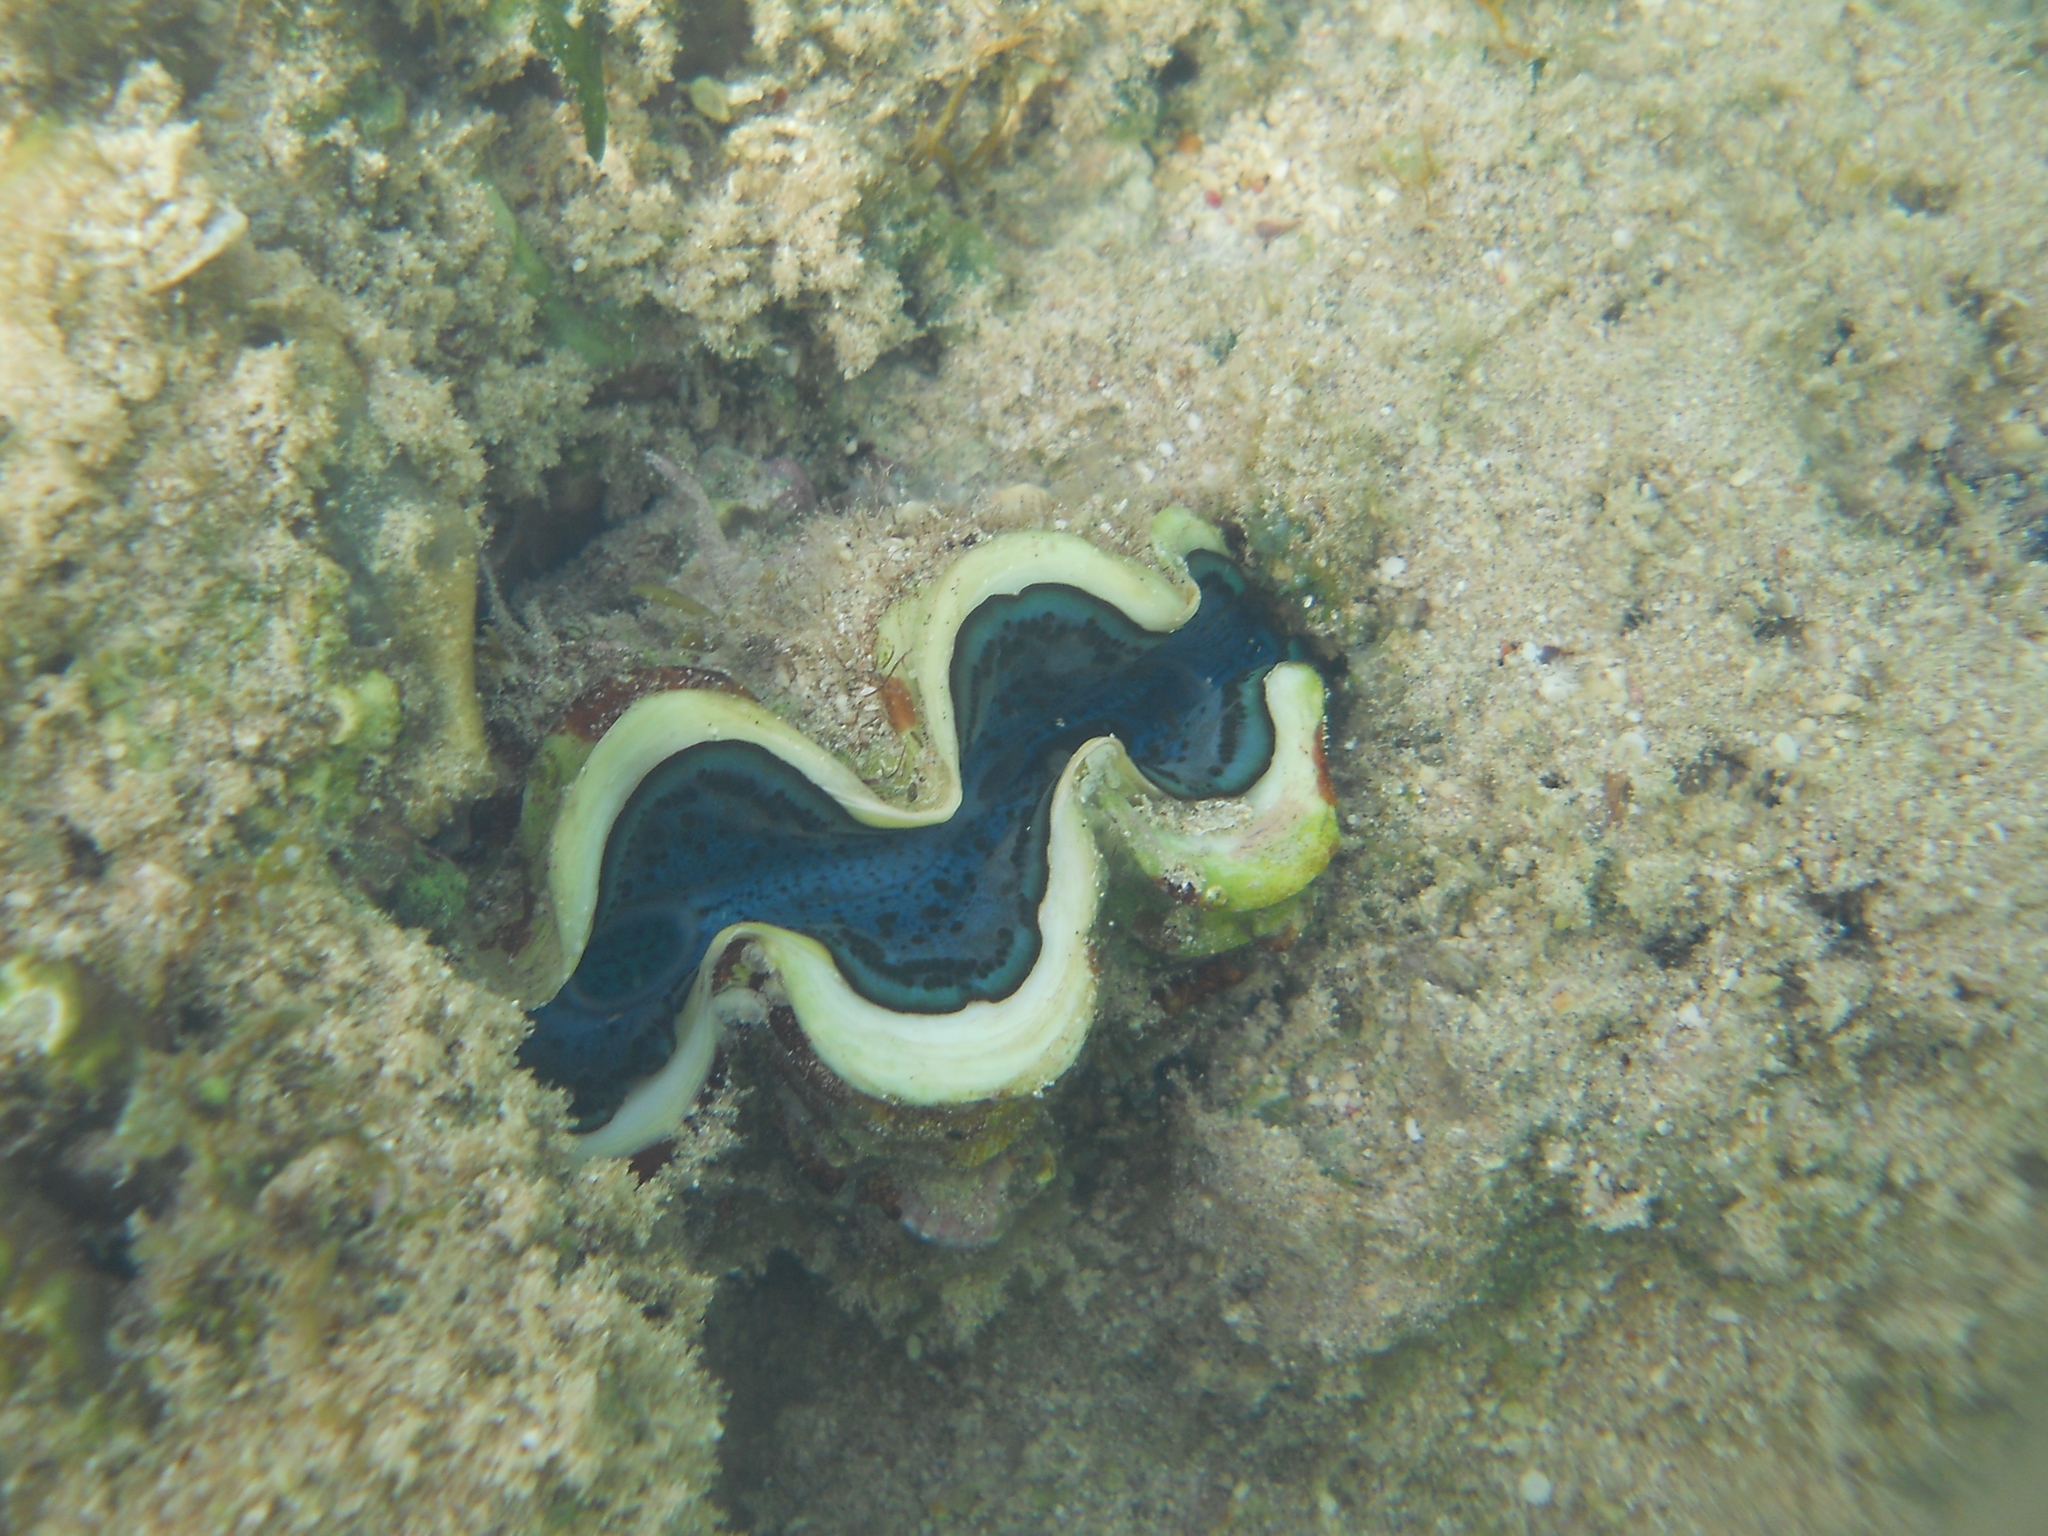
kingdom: Animalia
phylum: Mollusca
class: Bivalvia
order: Cardiida
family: Cardiidae
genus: Tridacna
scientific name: Tridacna maxima
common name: Small giant clam
